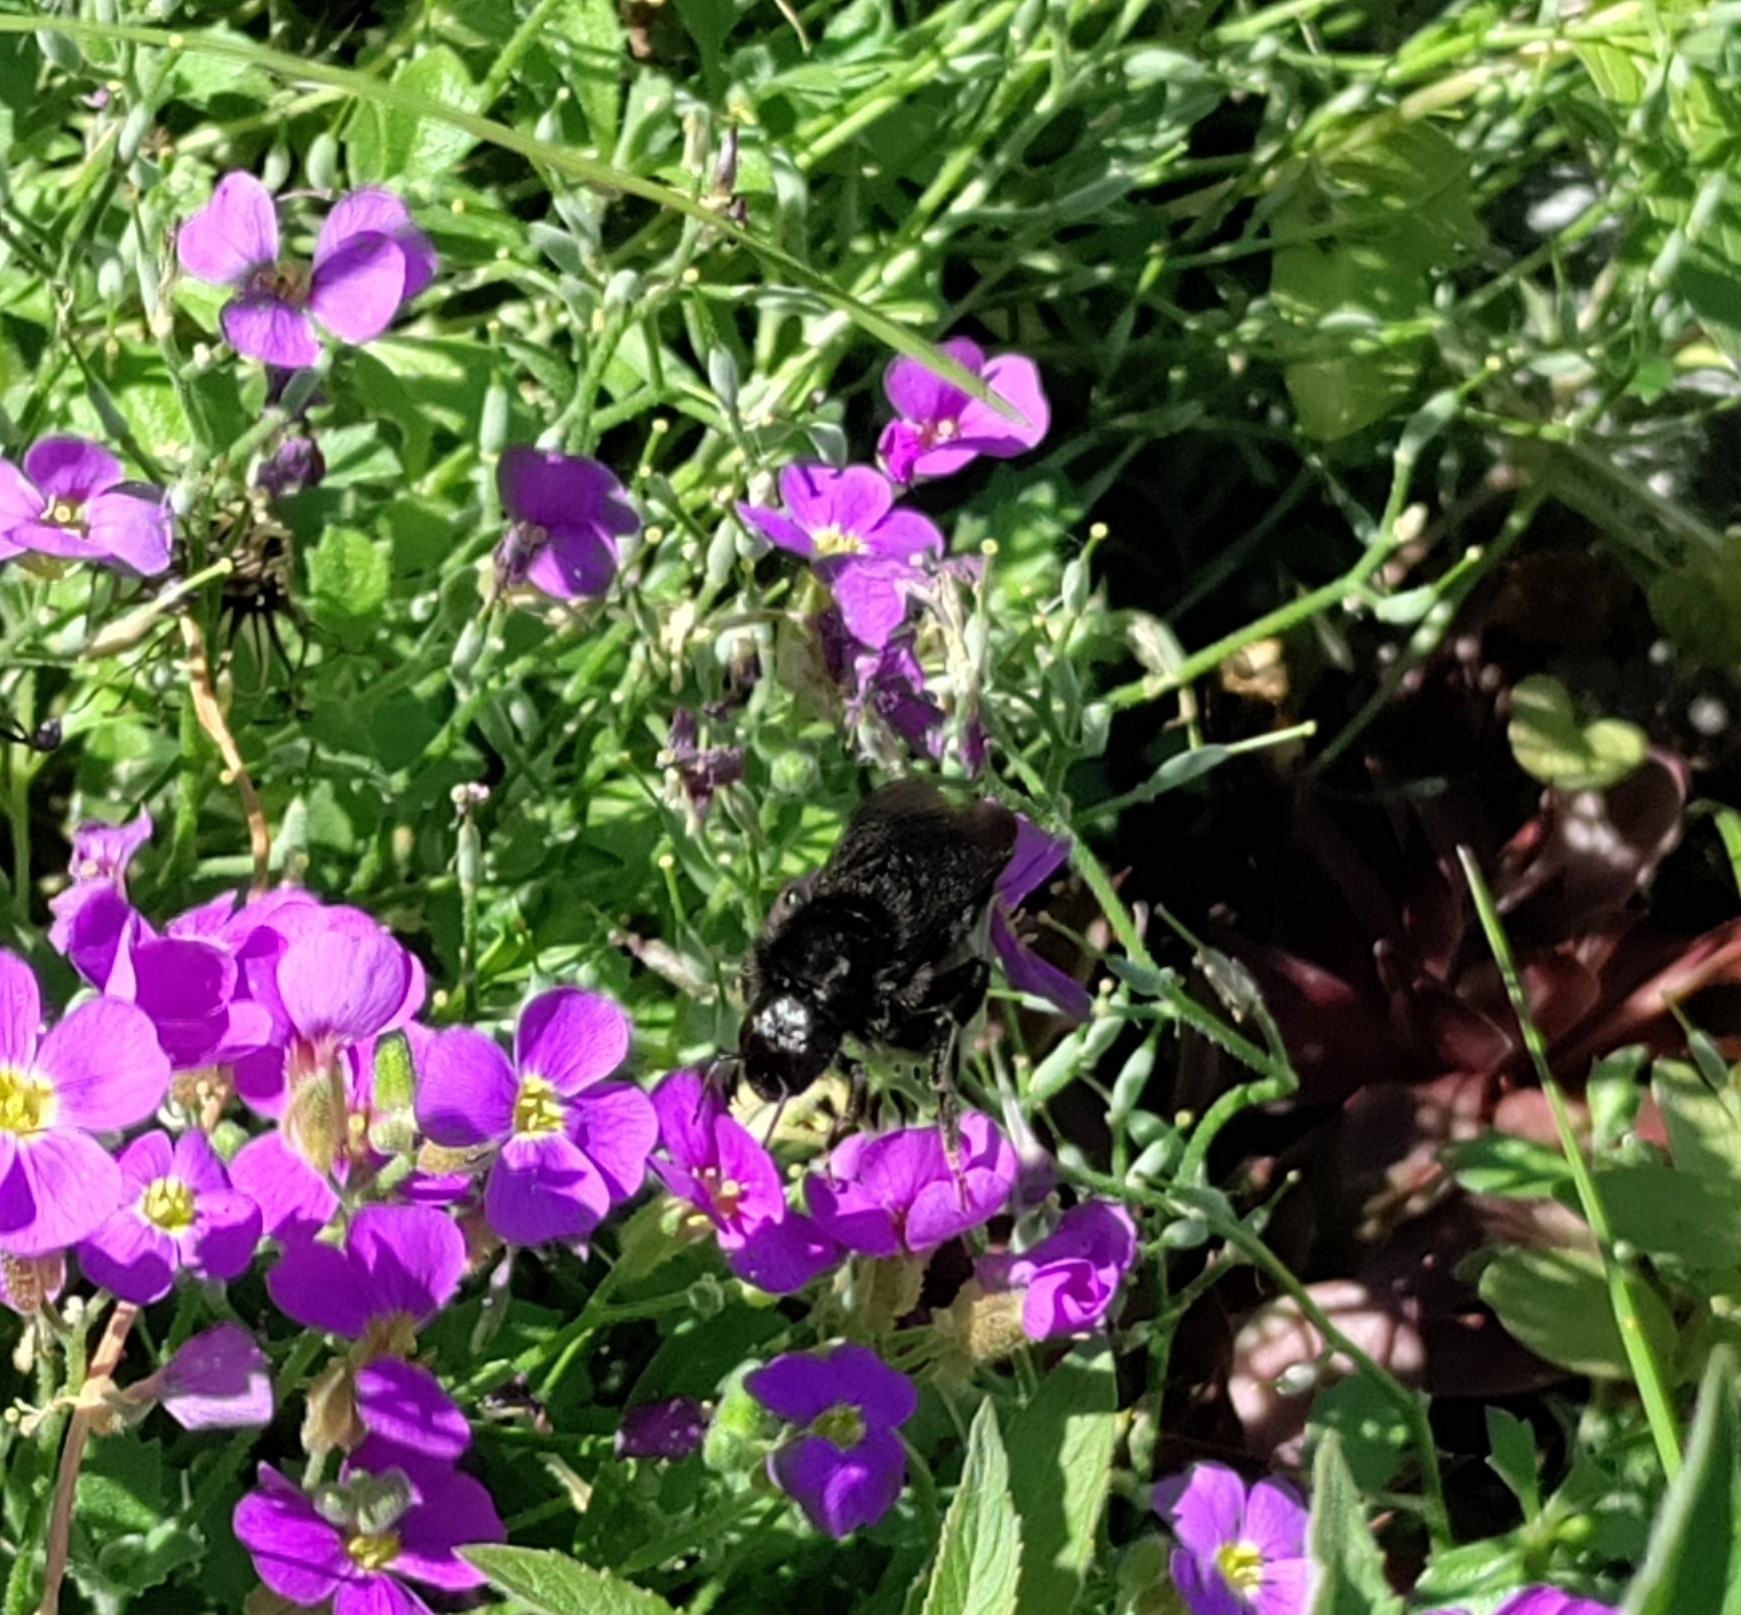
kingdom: Animalia
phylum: Arthropoda
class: Insecta
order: Hymenoptera
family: Apidae
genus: Bombus
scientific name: Bombus rupestris
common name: Hill cuckoo-bee
